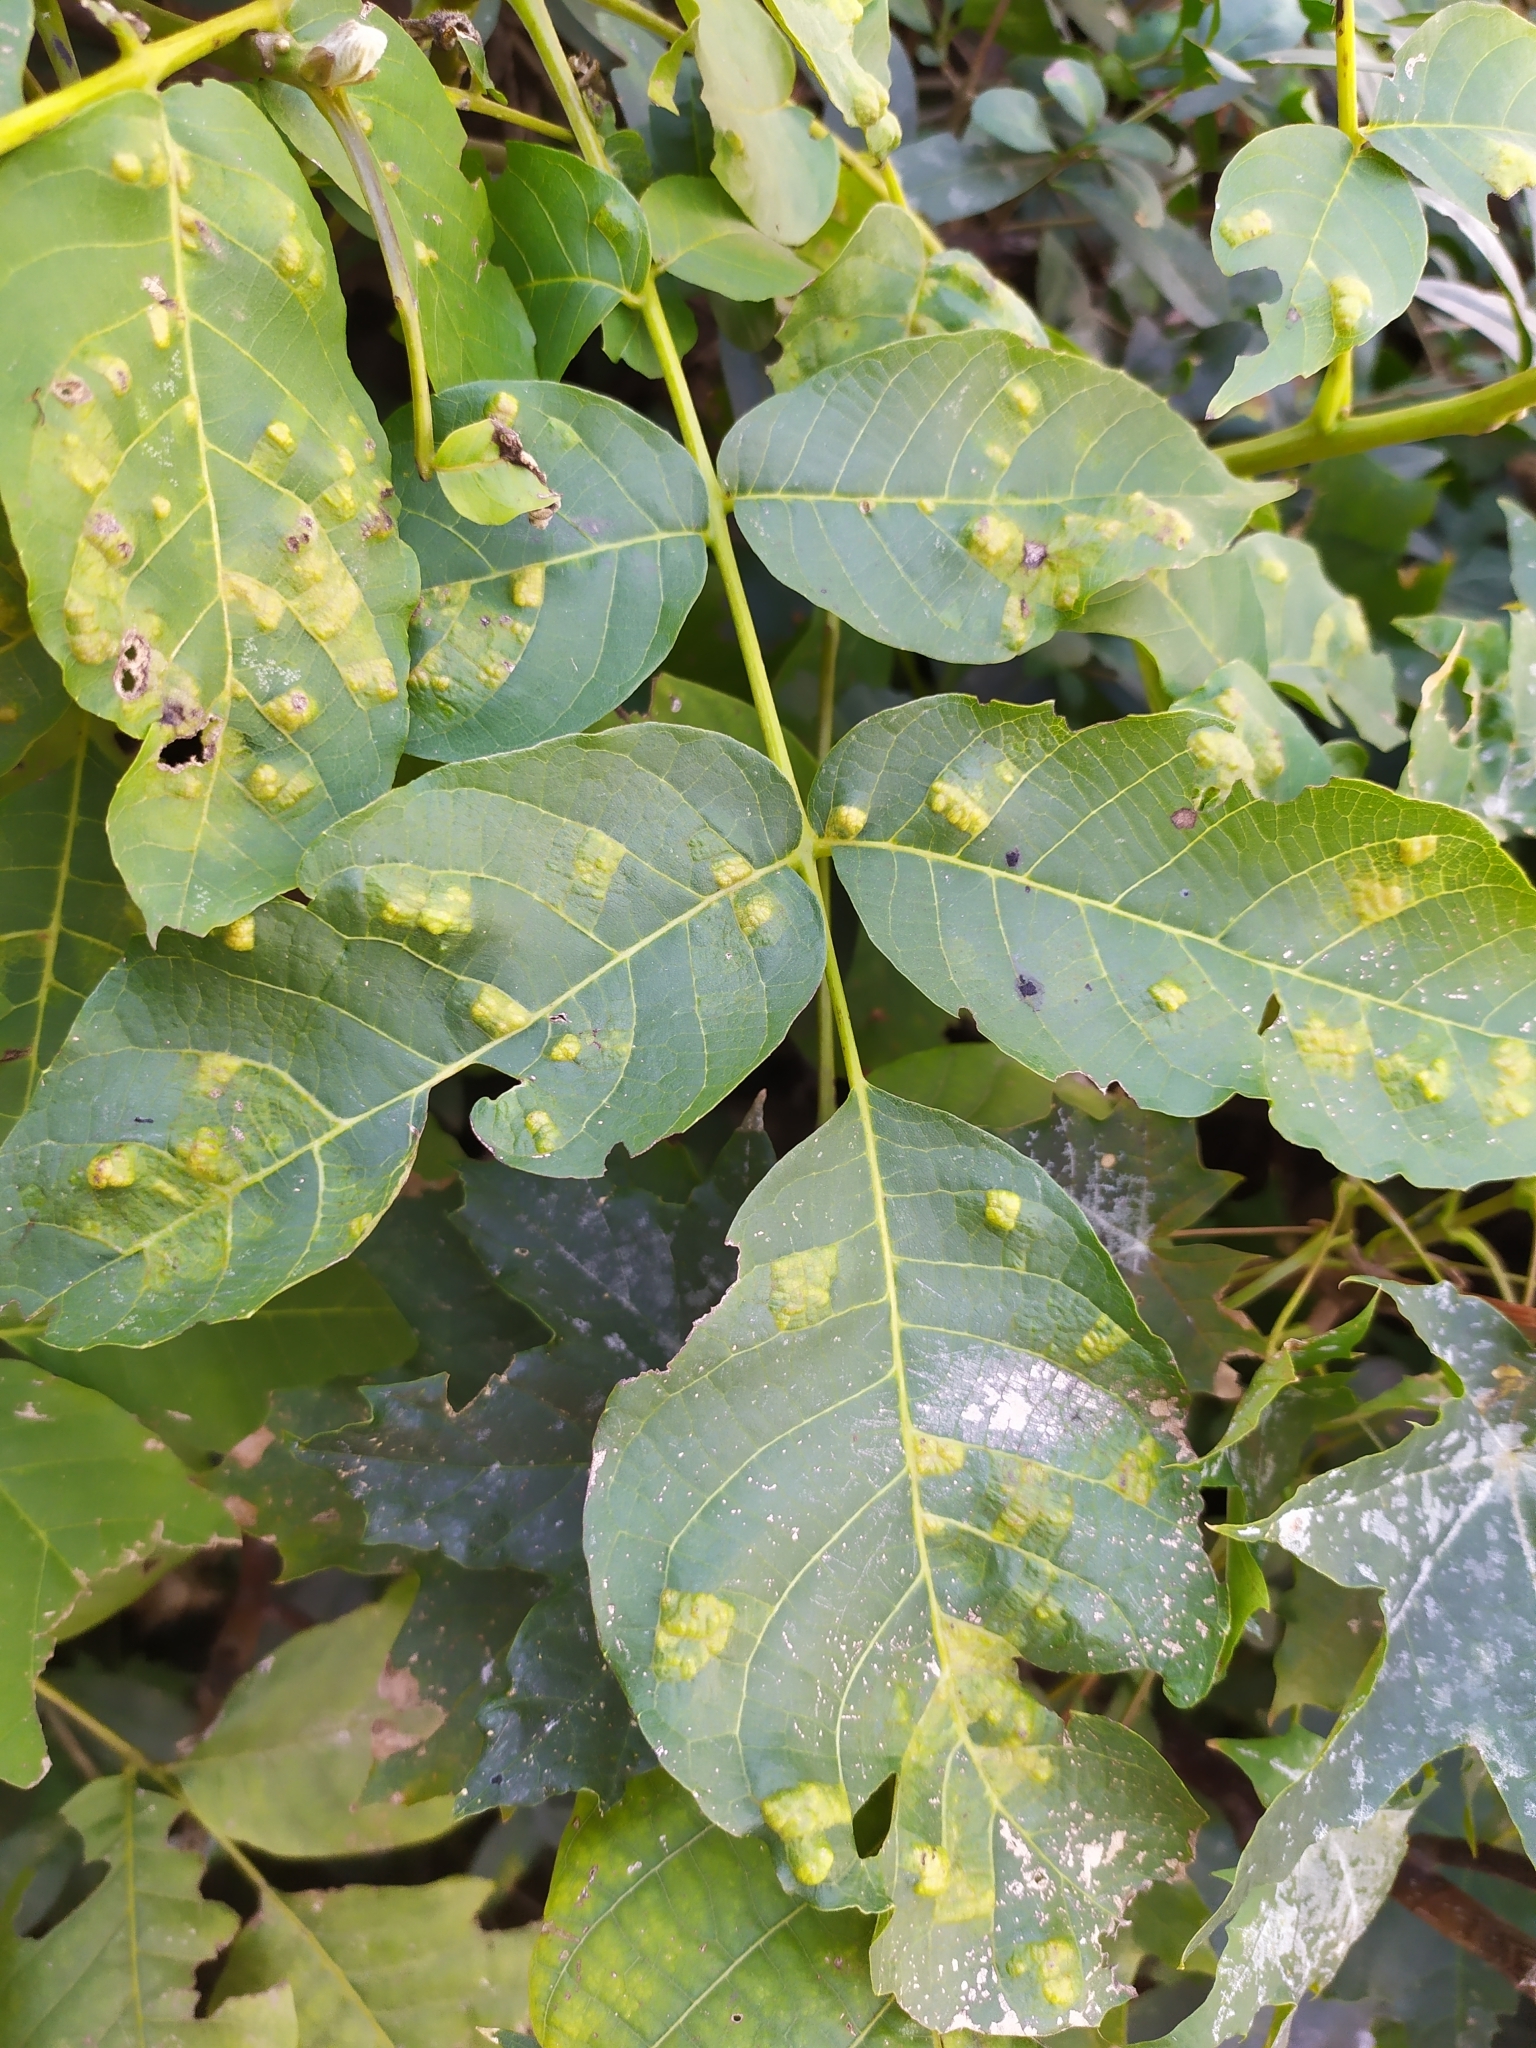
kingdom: Animalia
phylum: Arthropoda
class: Arachnida
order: Trombidiformes
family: Eriophyidae
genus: Aceria
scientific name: Aceria erinea
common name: Persian walnut erineum mite
